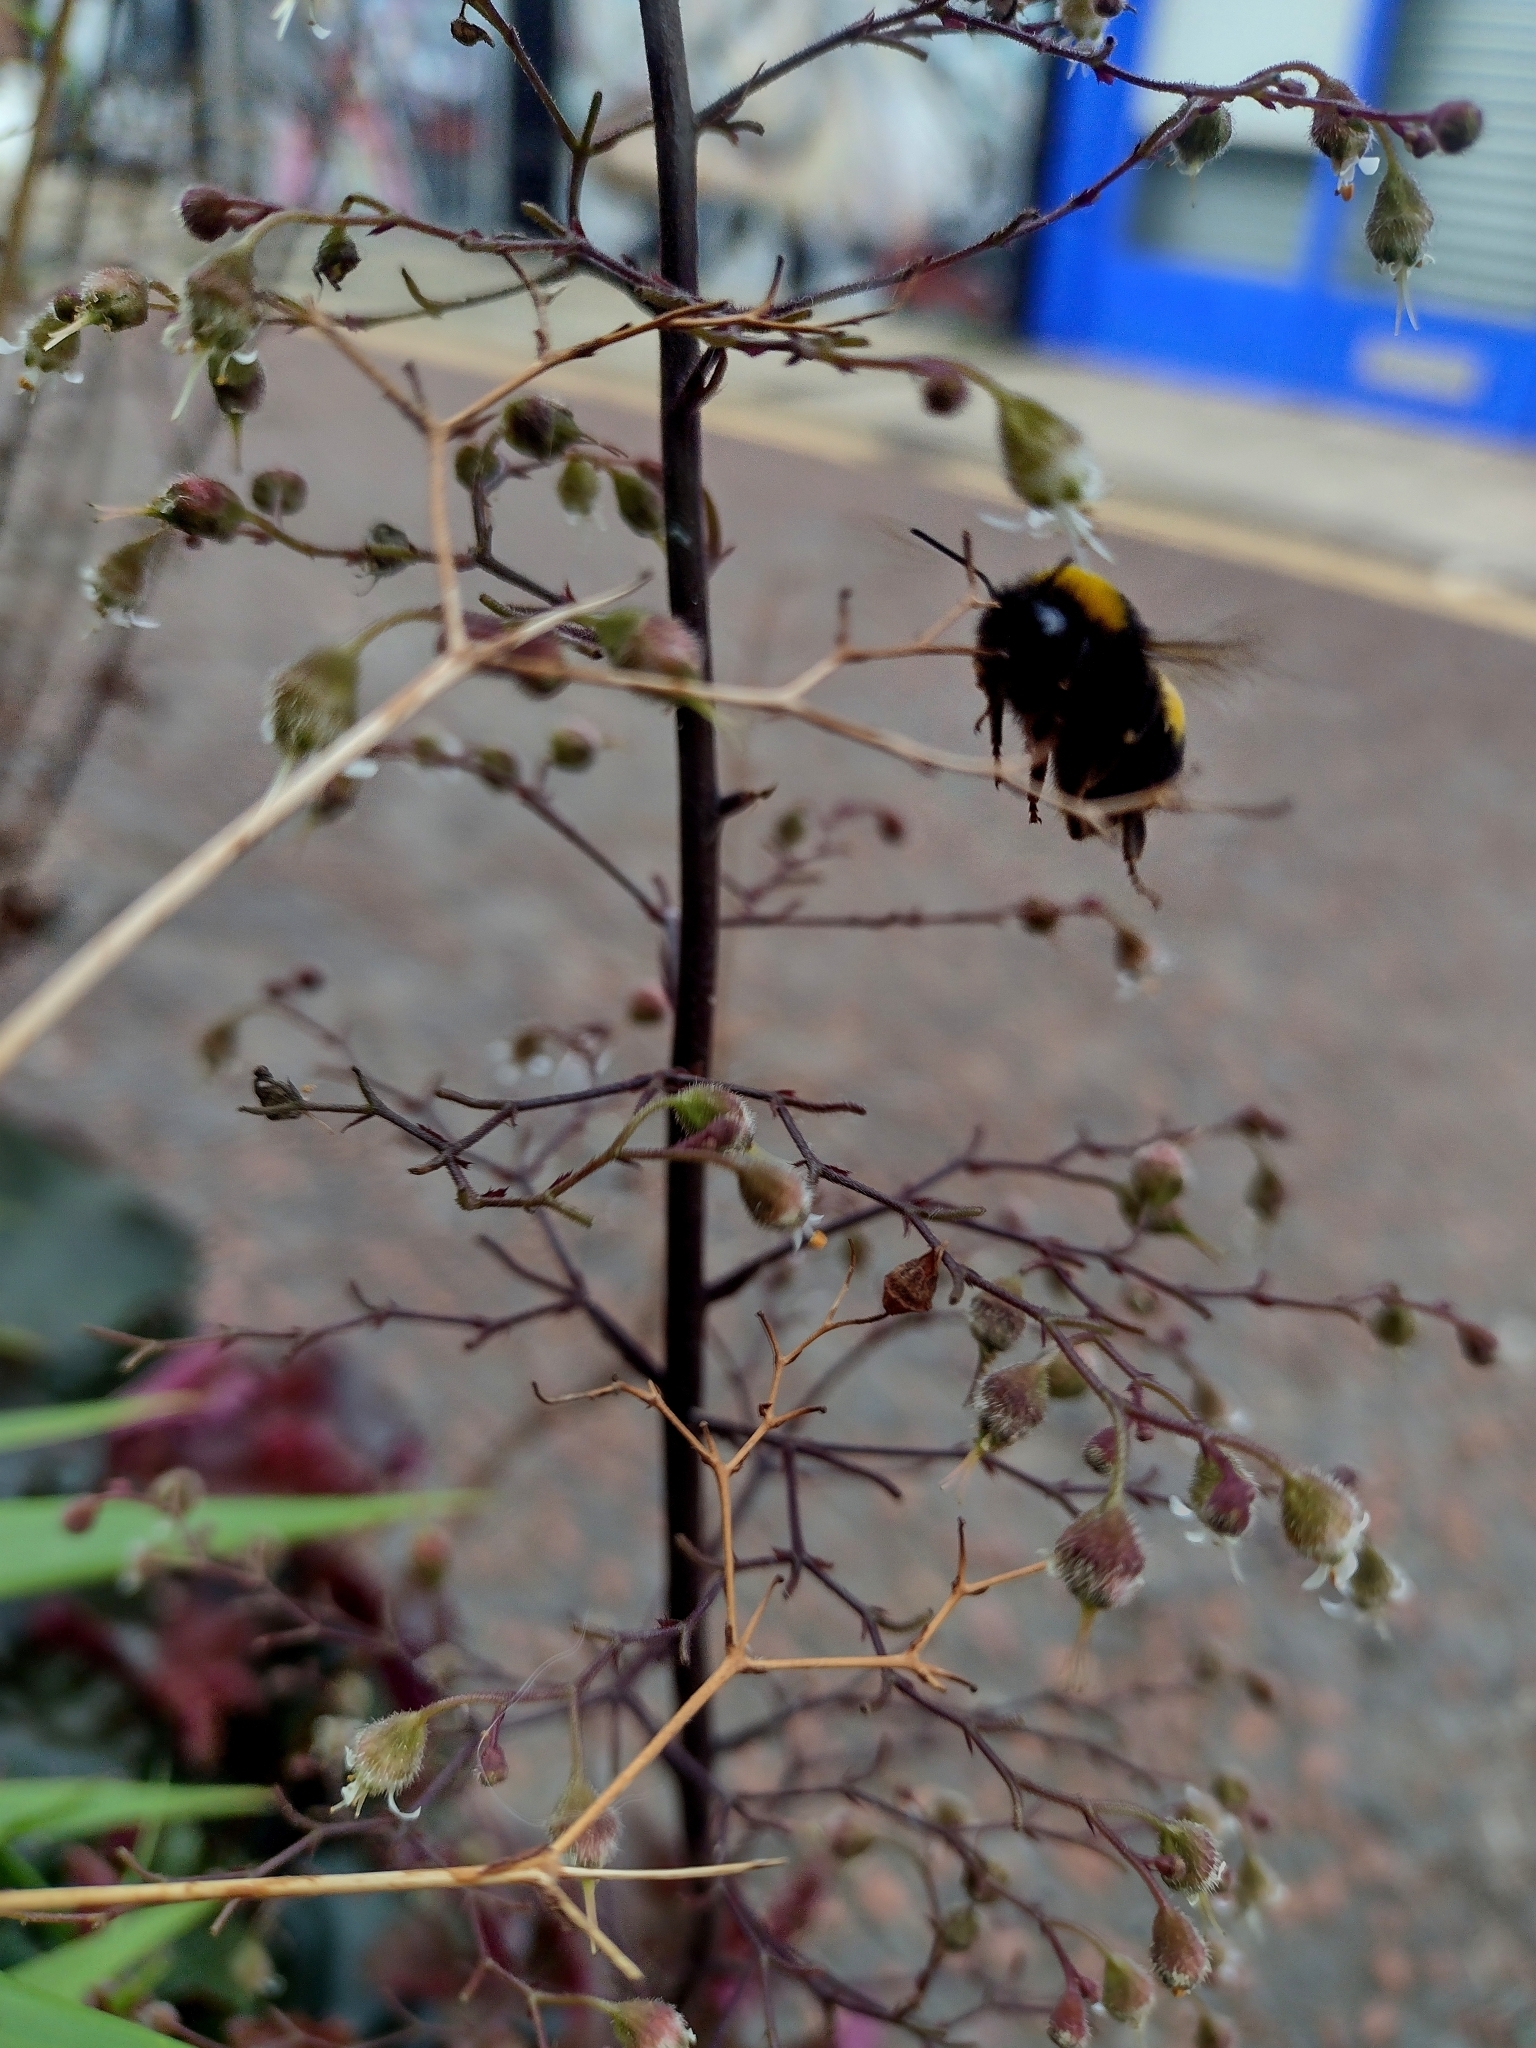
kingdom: Animalia
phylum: Arthropoda
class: Insecta
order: Hymenoptera
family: Apidae
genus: Bombus
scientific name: Bombus terrestris
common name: Buff-tailed bumblebee
